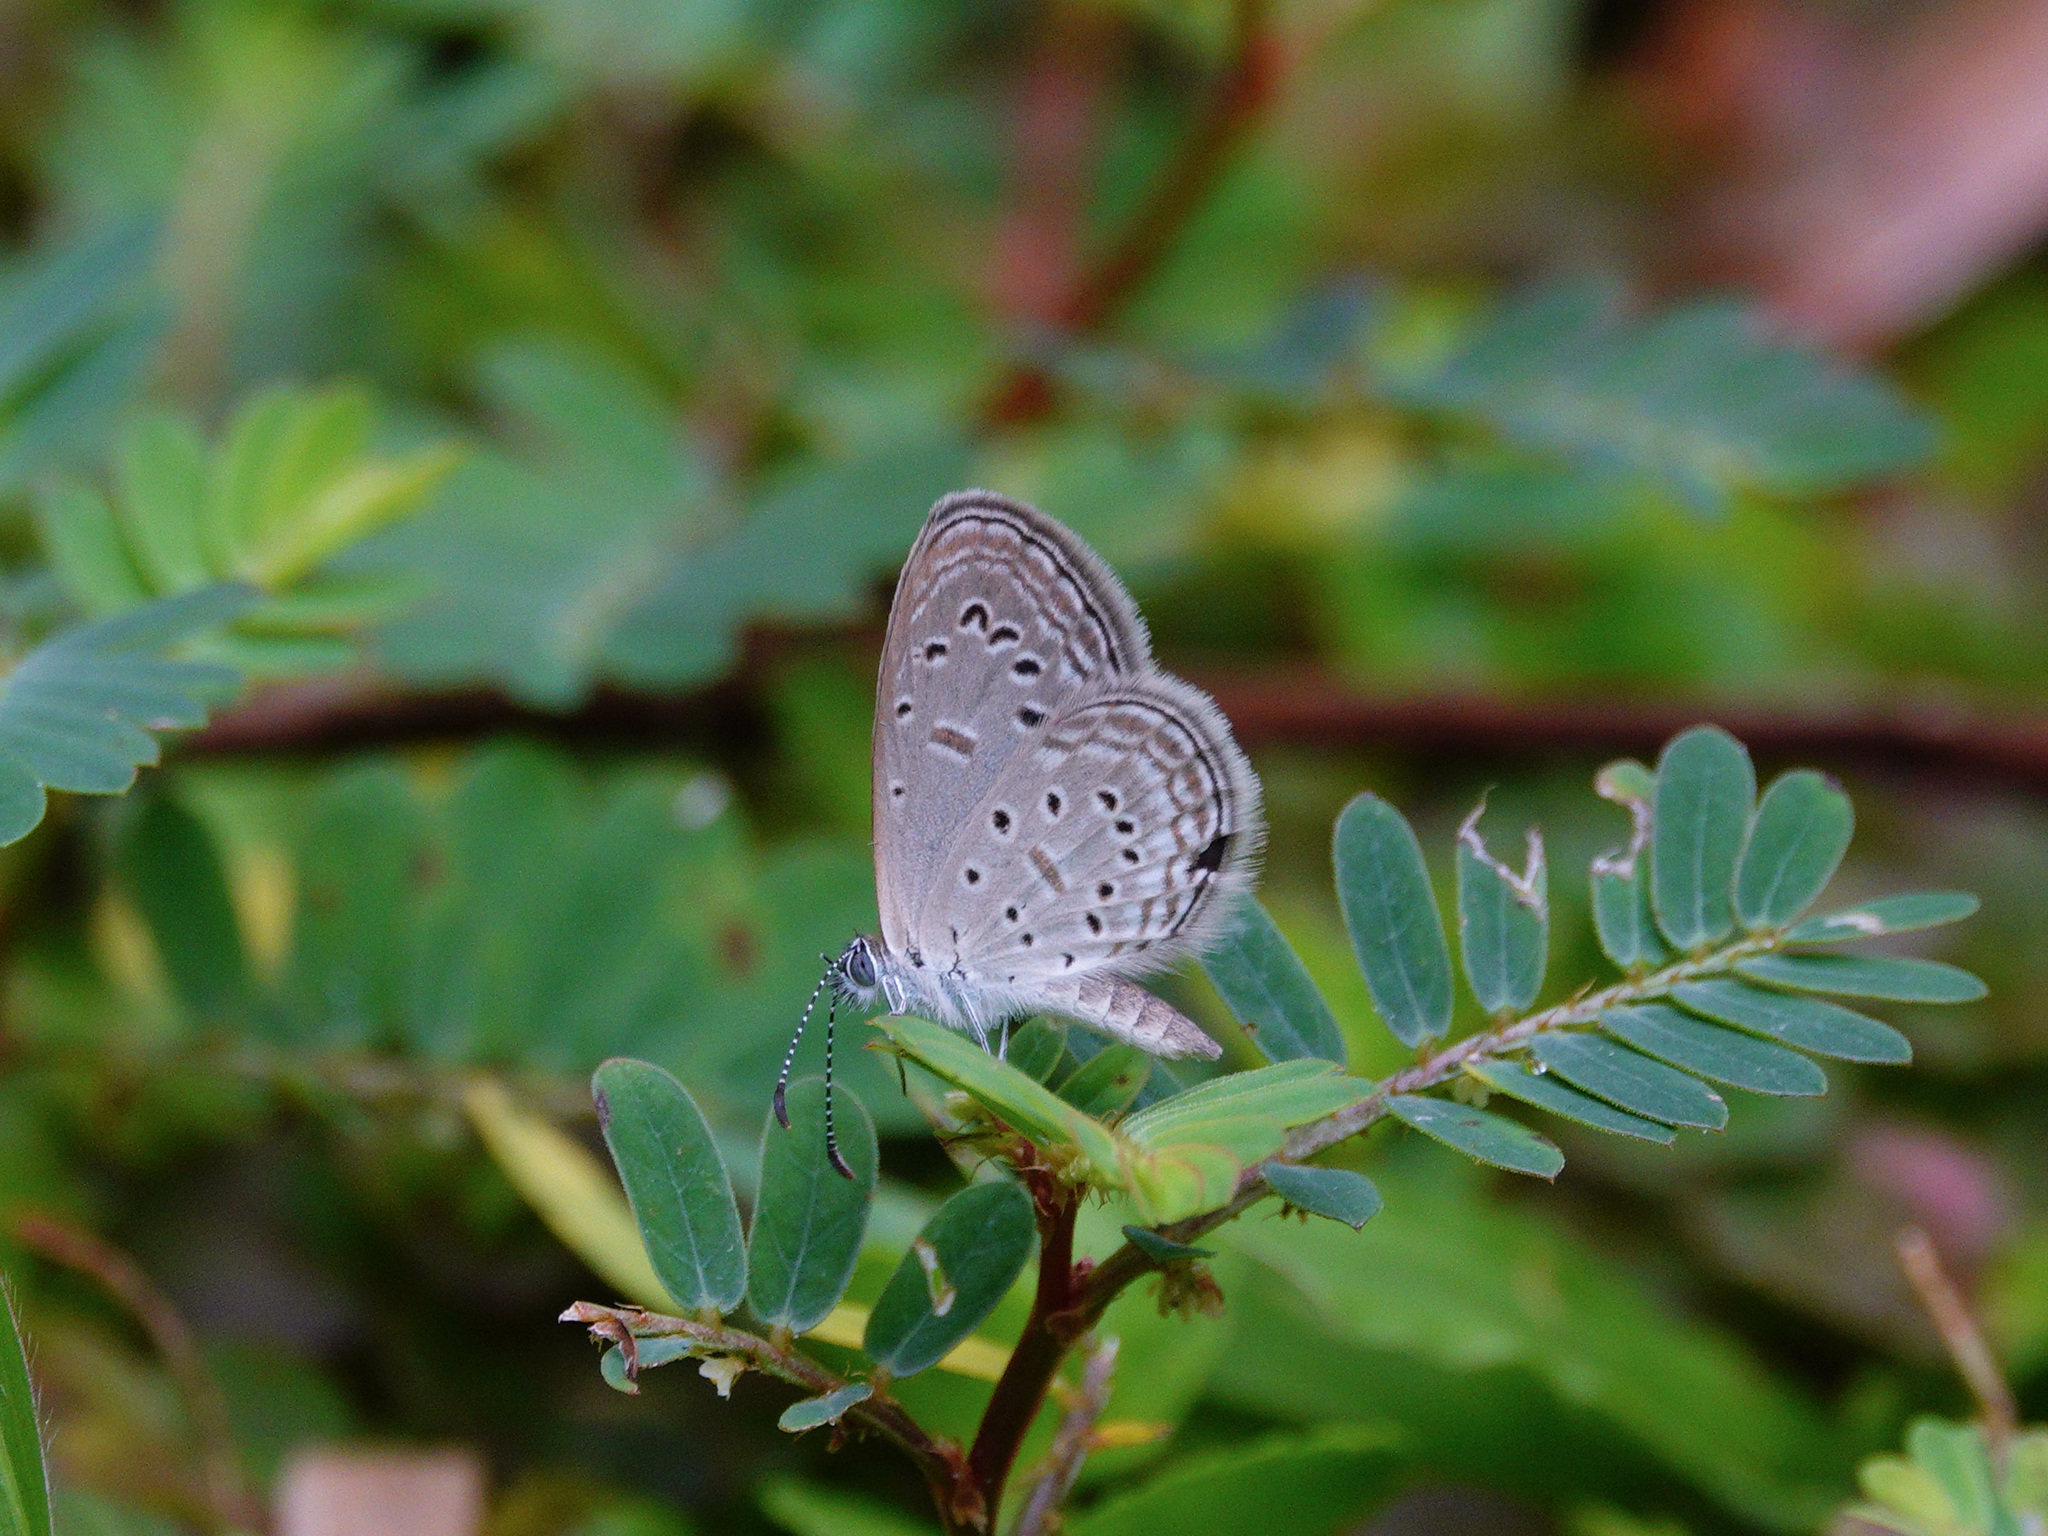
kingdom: Animalia
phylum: Arthropoda
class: Insecta
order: Lepidoptera
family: Lycaenidae
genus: Zizula
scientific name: Zizula hylax
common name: Gaika blue
